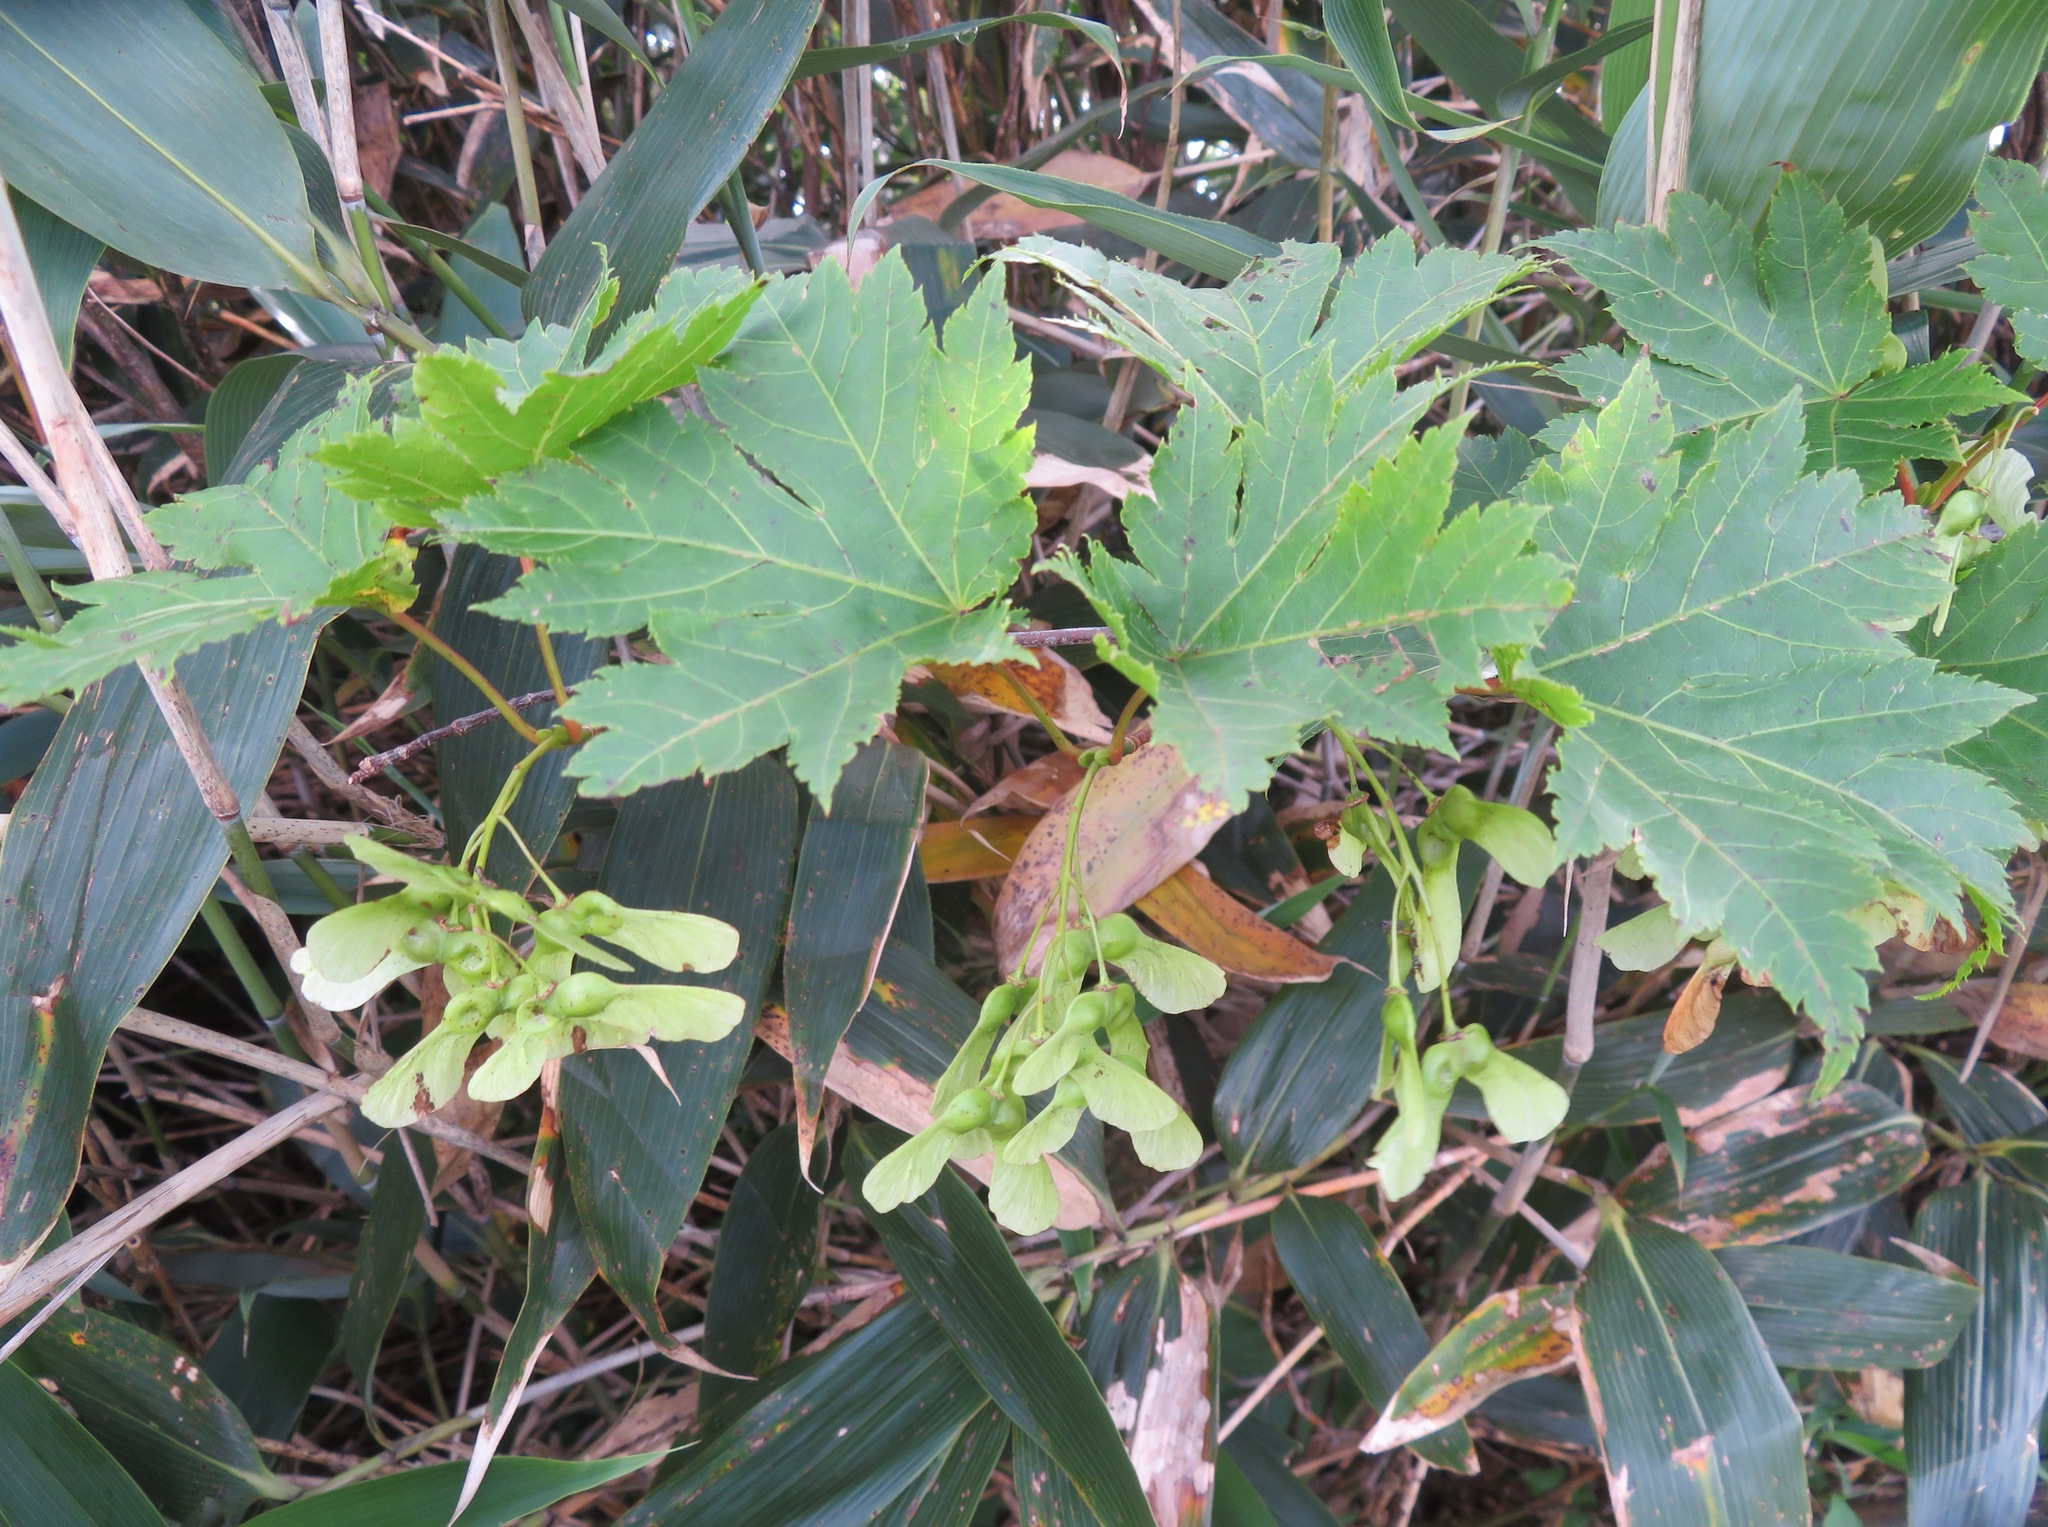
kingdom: Plantae
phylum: Tracheophyta
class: Magnoliopsida
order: Sapindales
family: Sapindaceae
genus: Acer
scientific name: Acer tschonoskii
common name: Tschonoski’s maple
